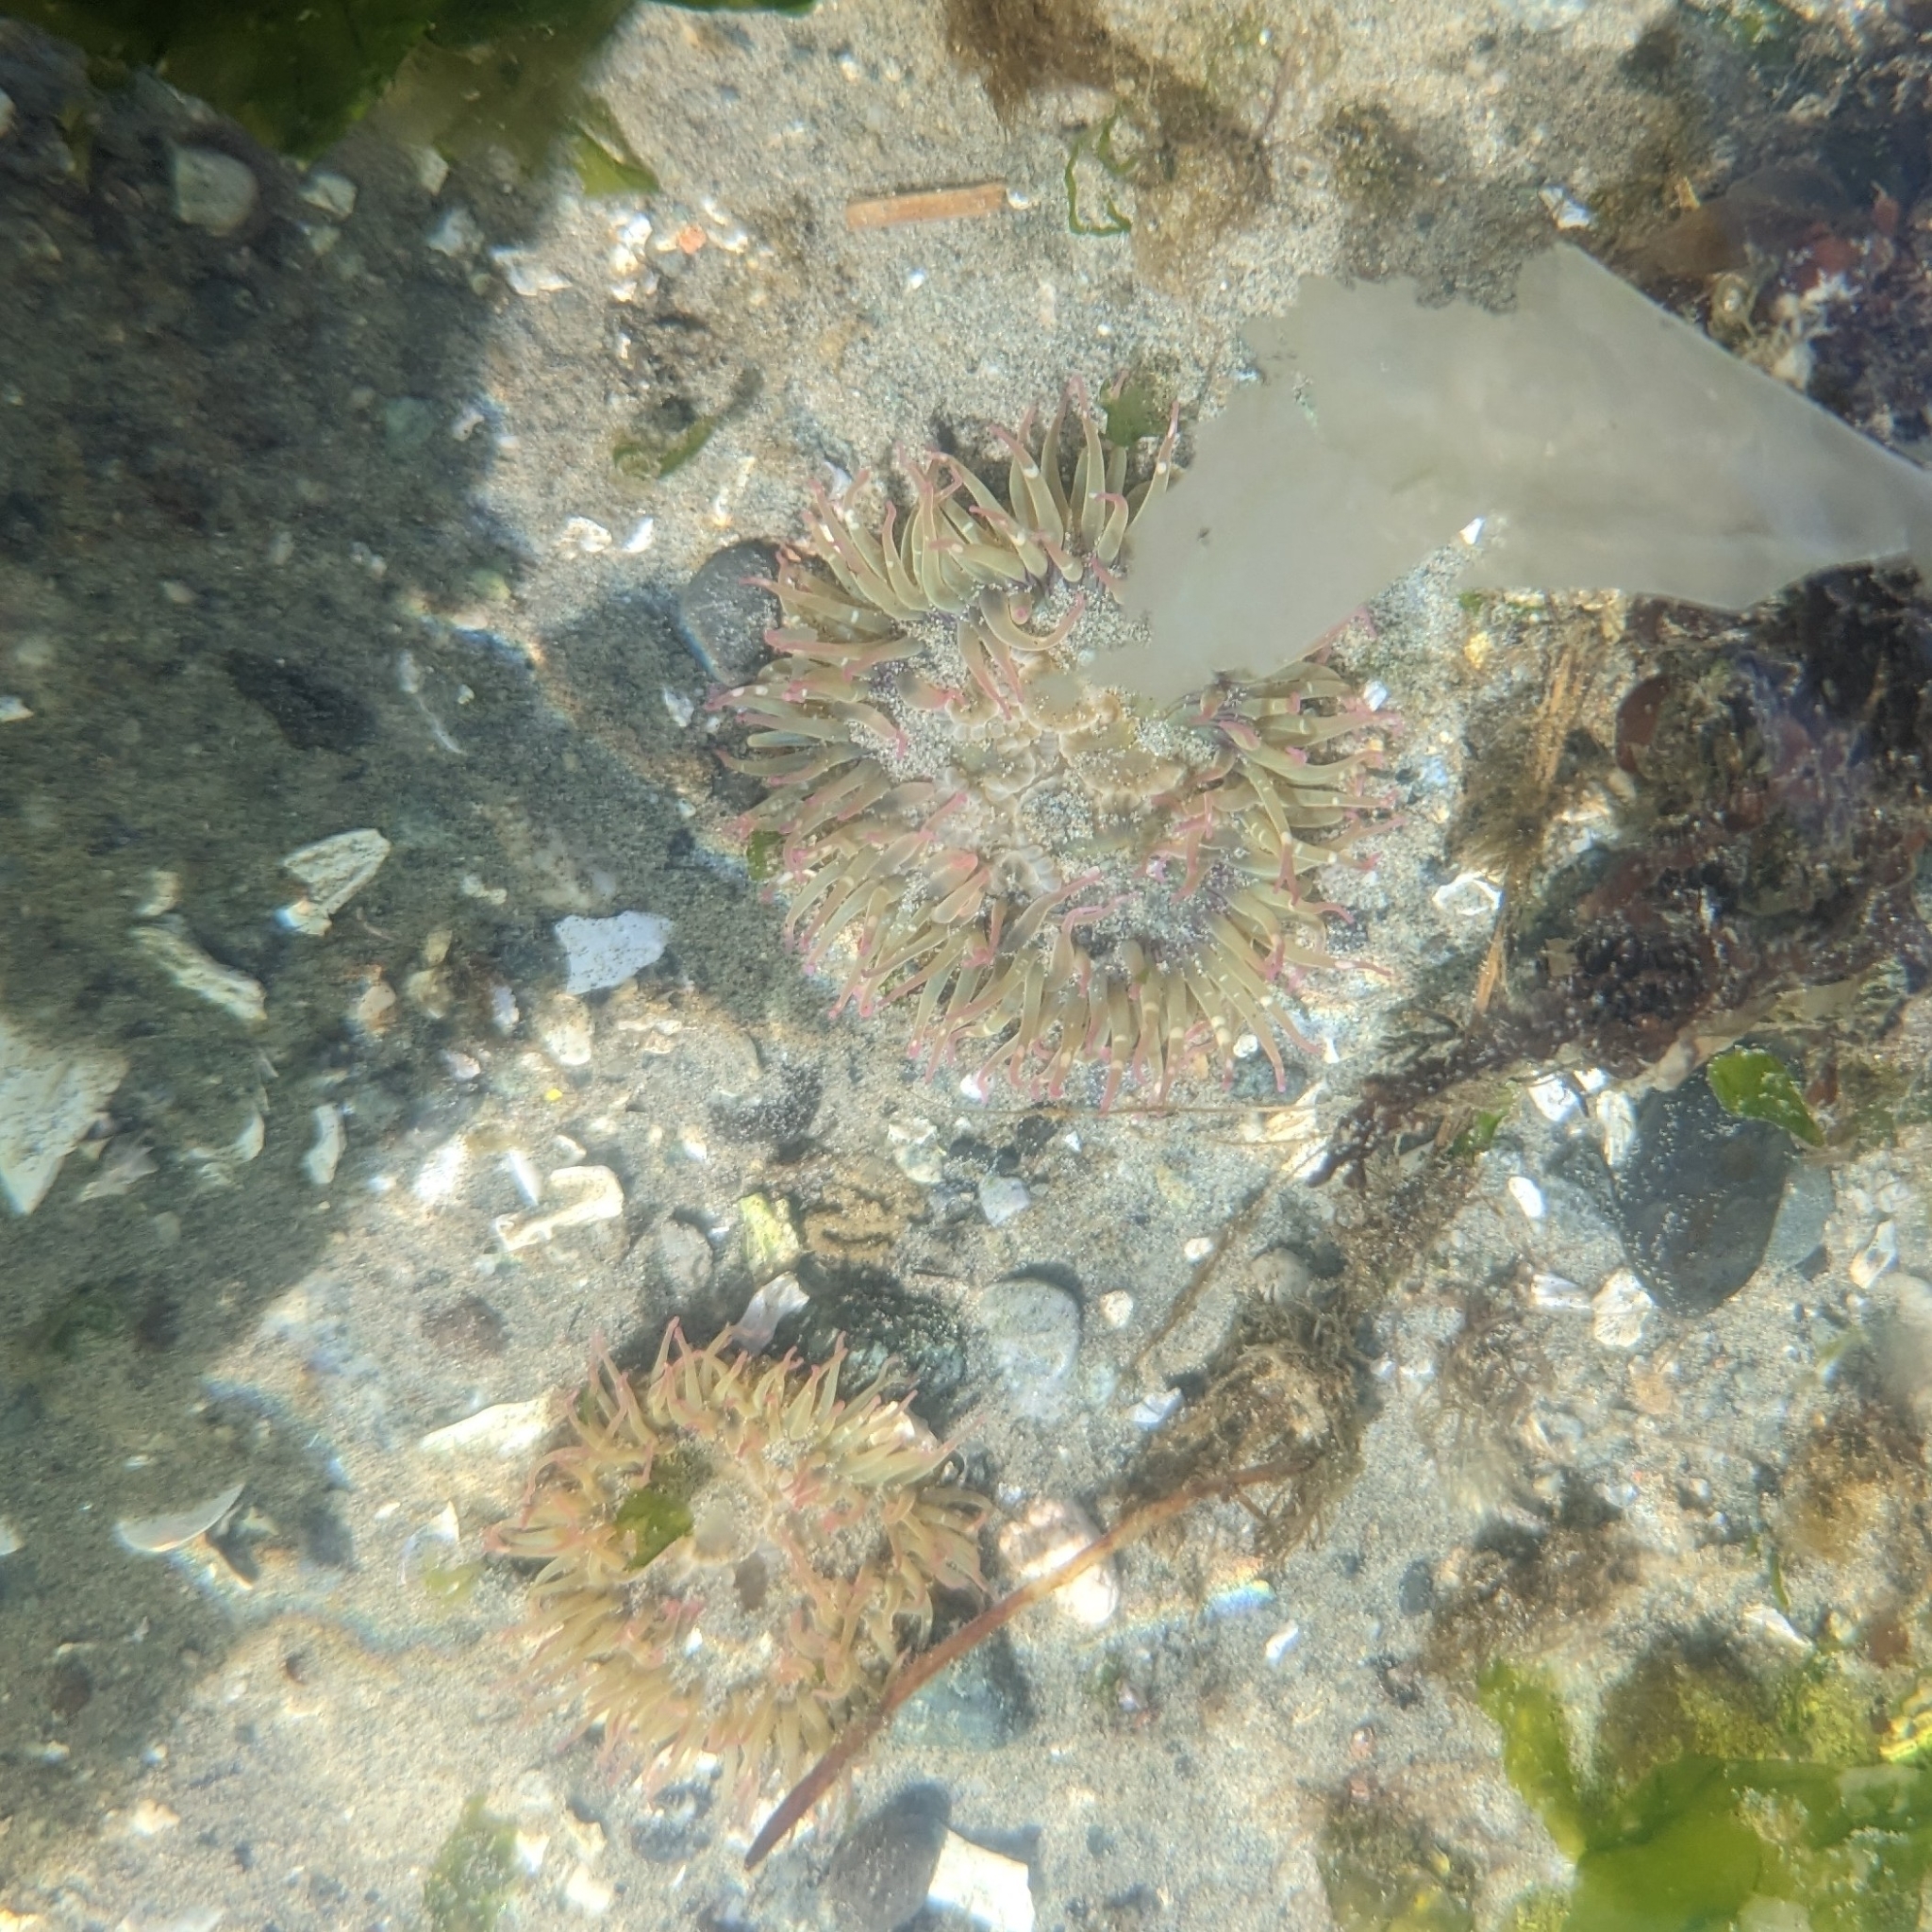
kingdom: Animalia
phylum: Cnidaria
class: Anthozoa
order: Actiniaria
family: Actiniidae
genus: Anthopleura
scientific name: Anthopleura elegantissima
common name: Clonal anemone
